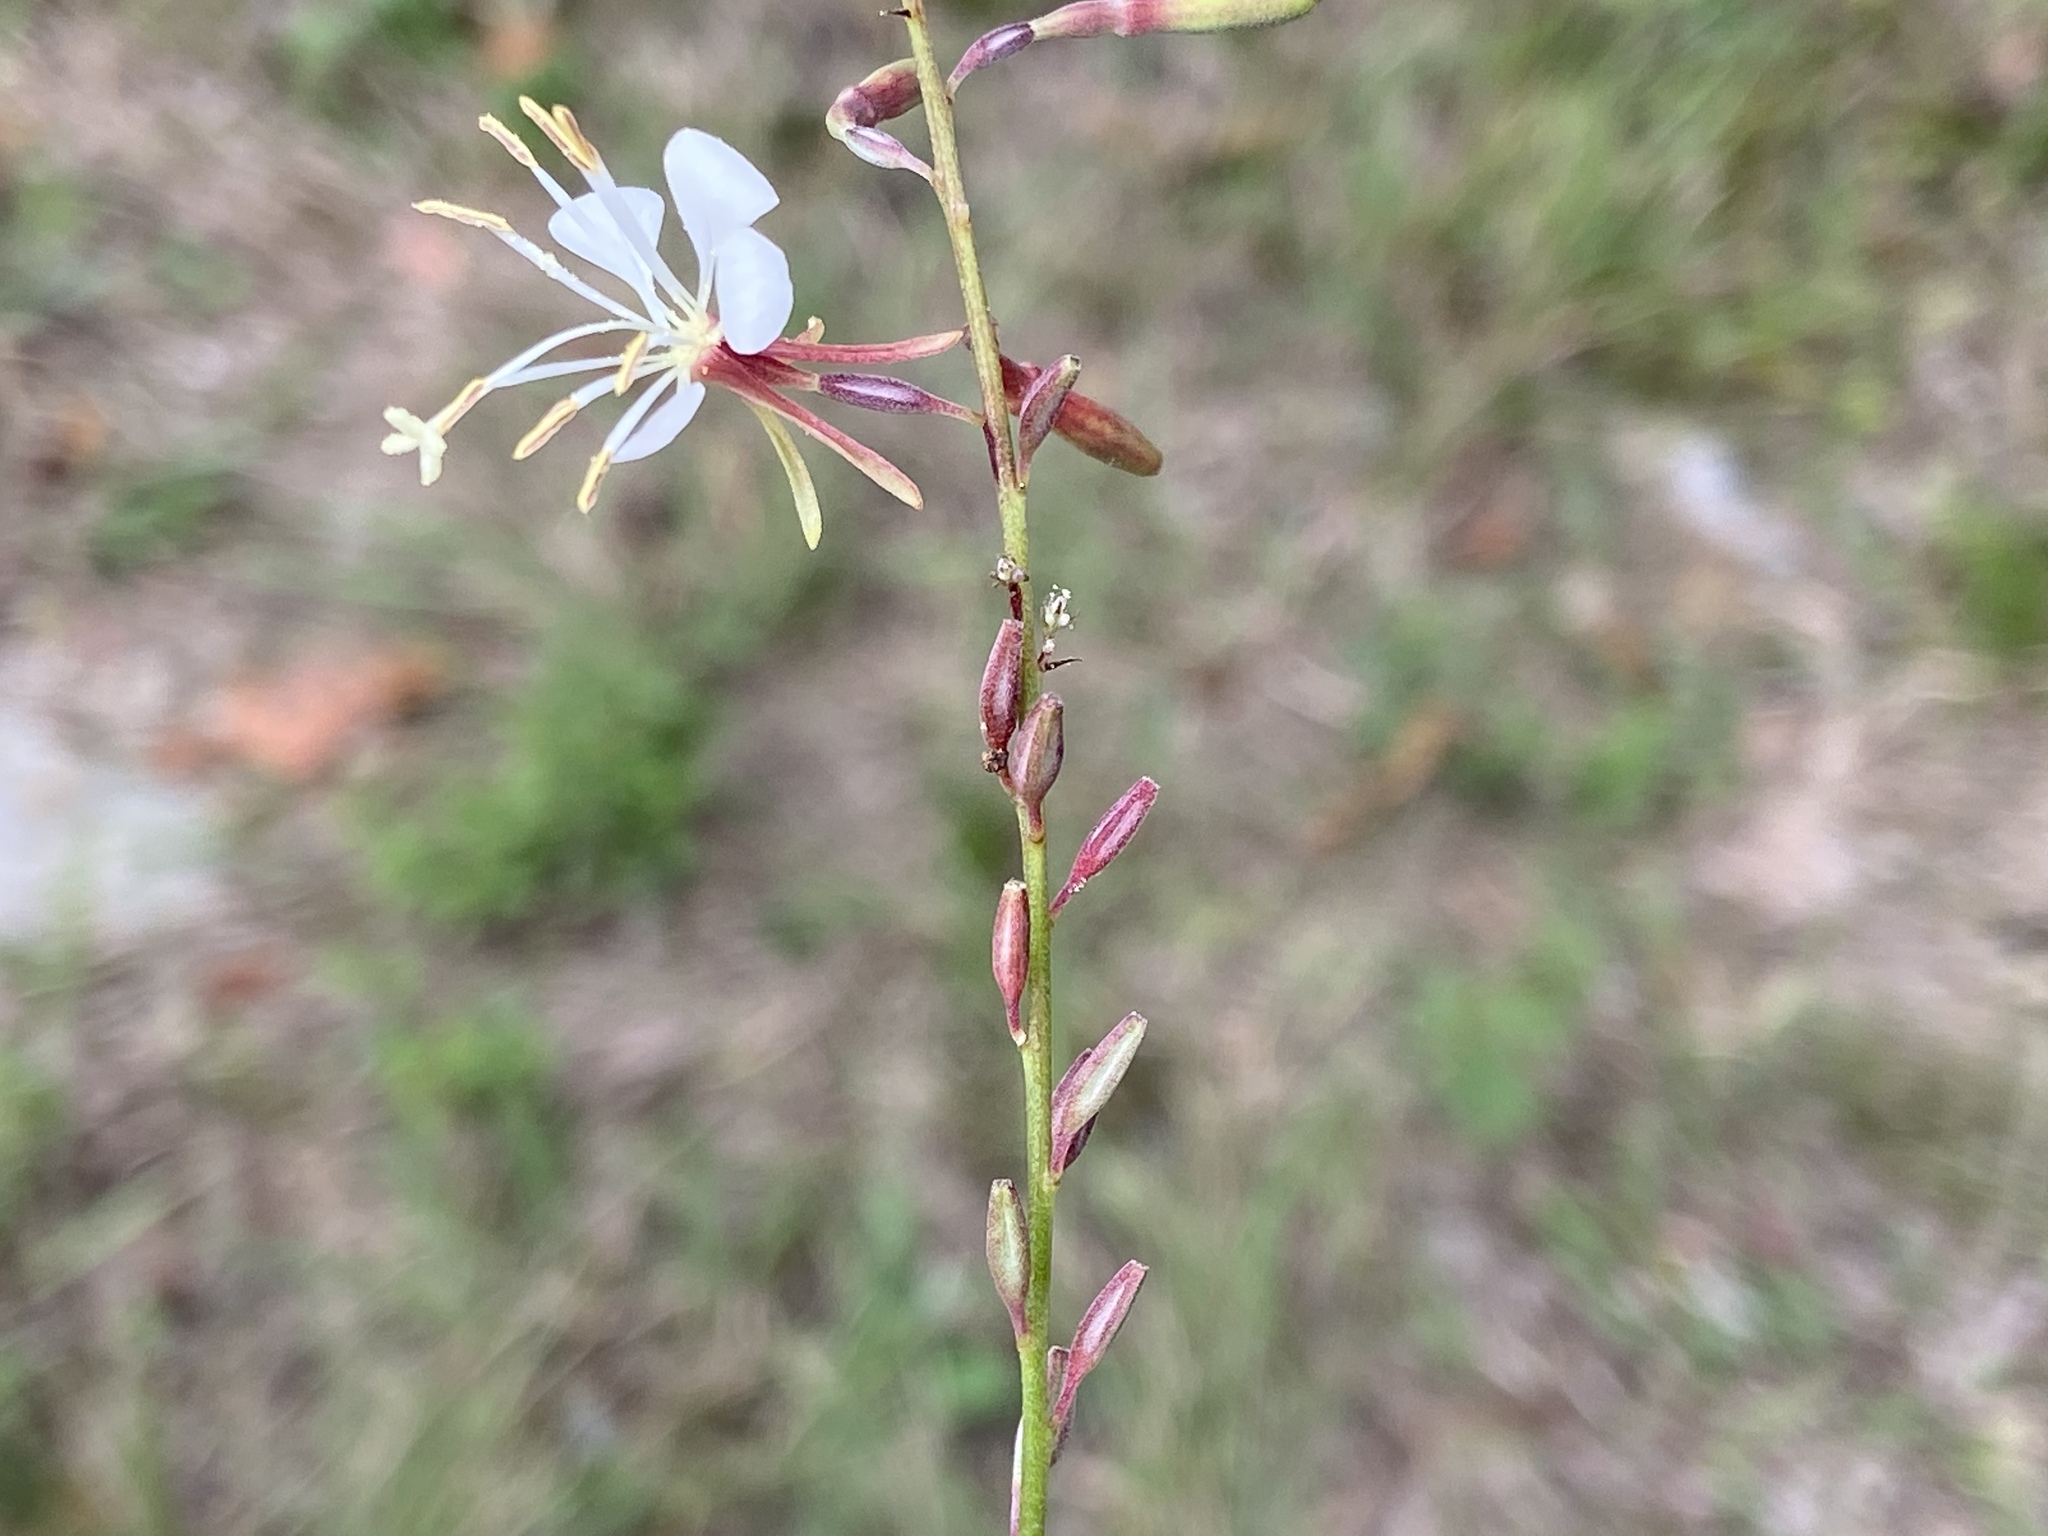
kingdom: Plantae
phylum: Tracheophyta
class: Magnoliopsida
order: Myrtales
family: Onagraceae
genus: Oenothera
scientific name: Oenothera filipes
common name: Slenderstalk beeblossom
